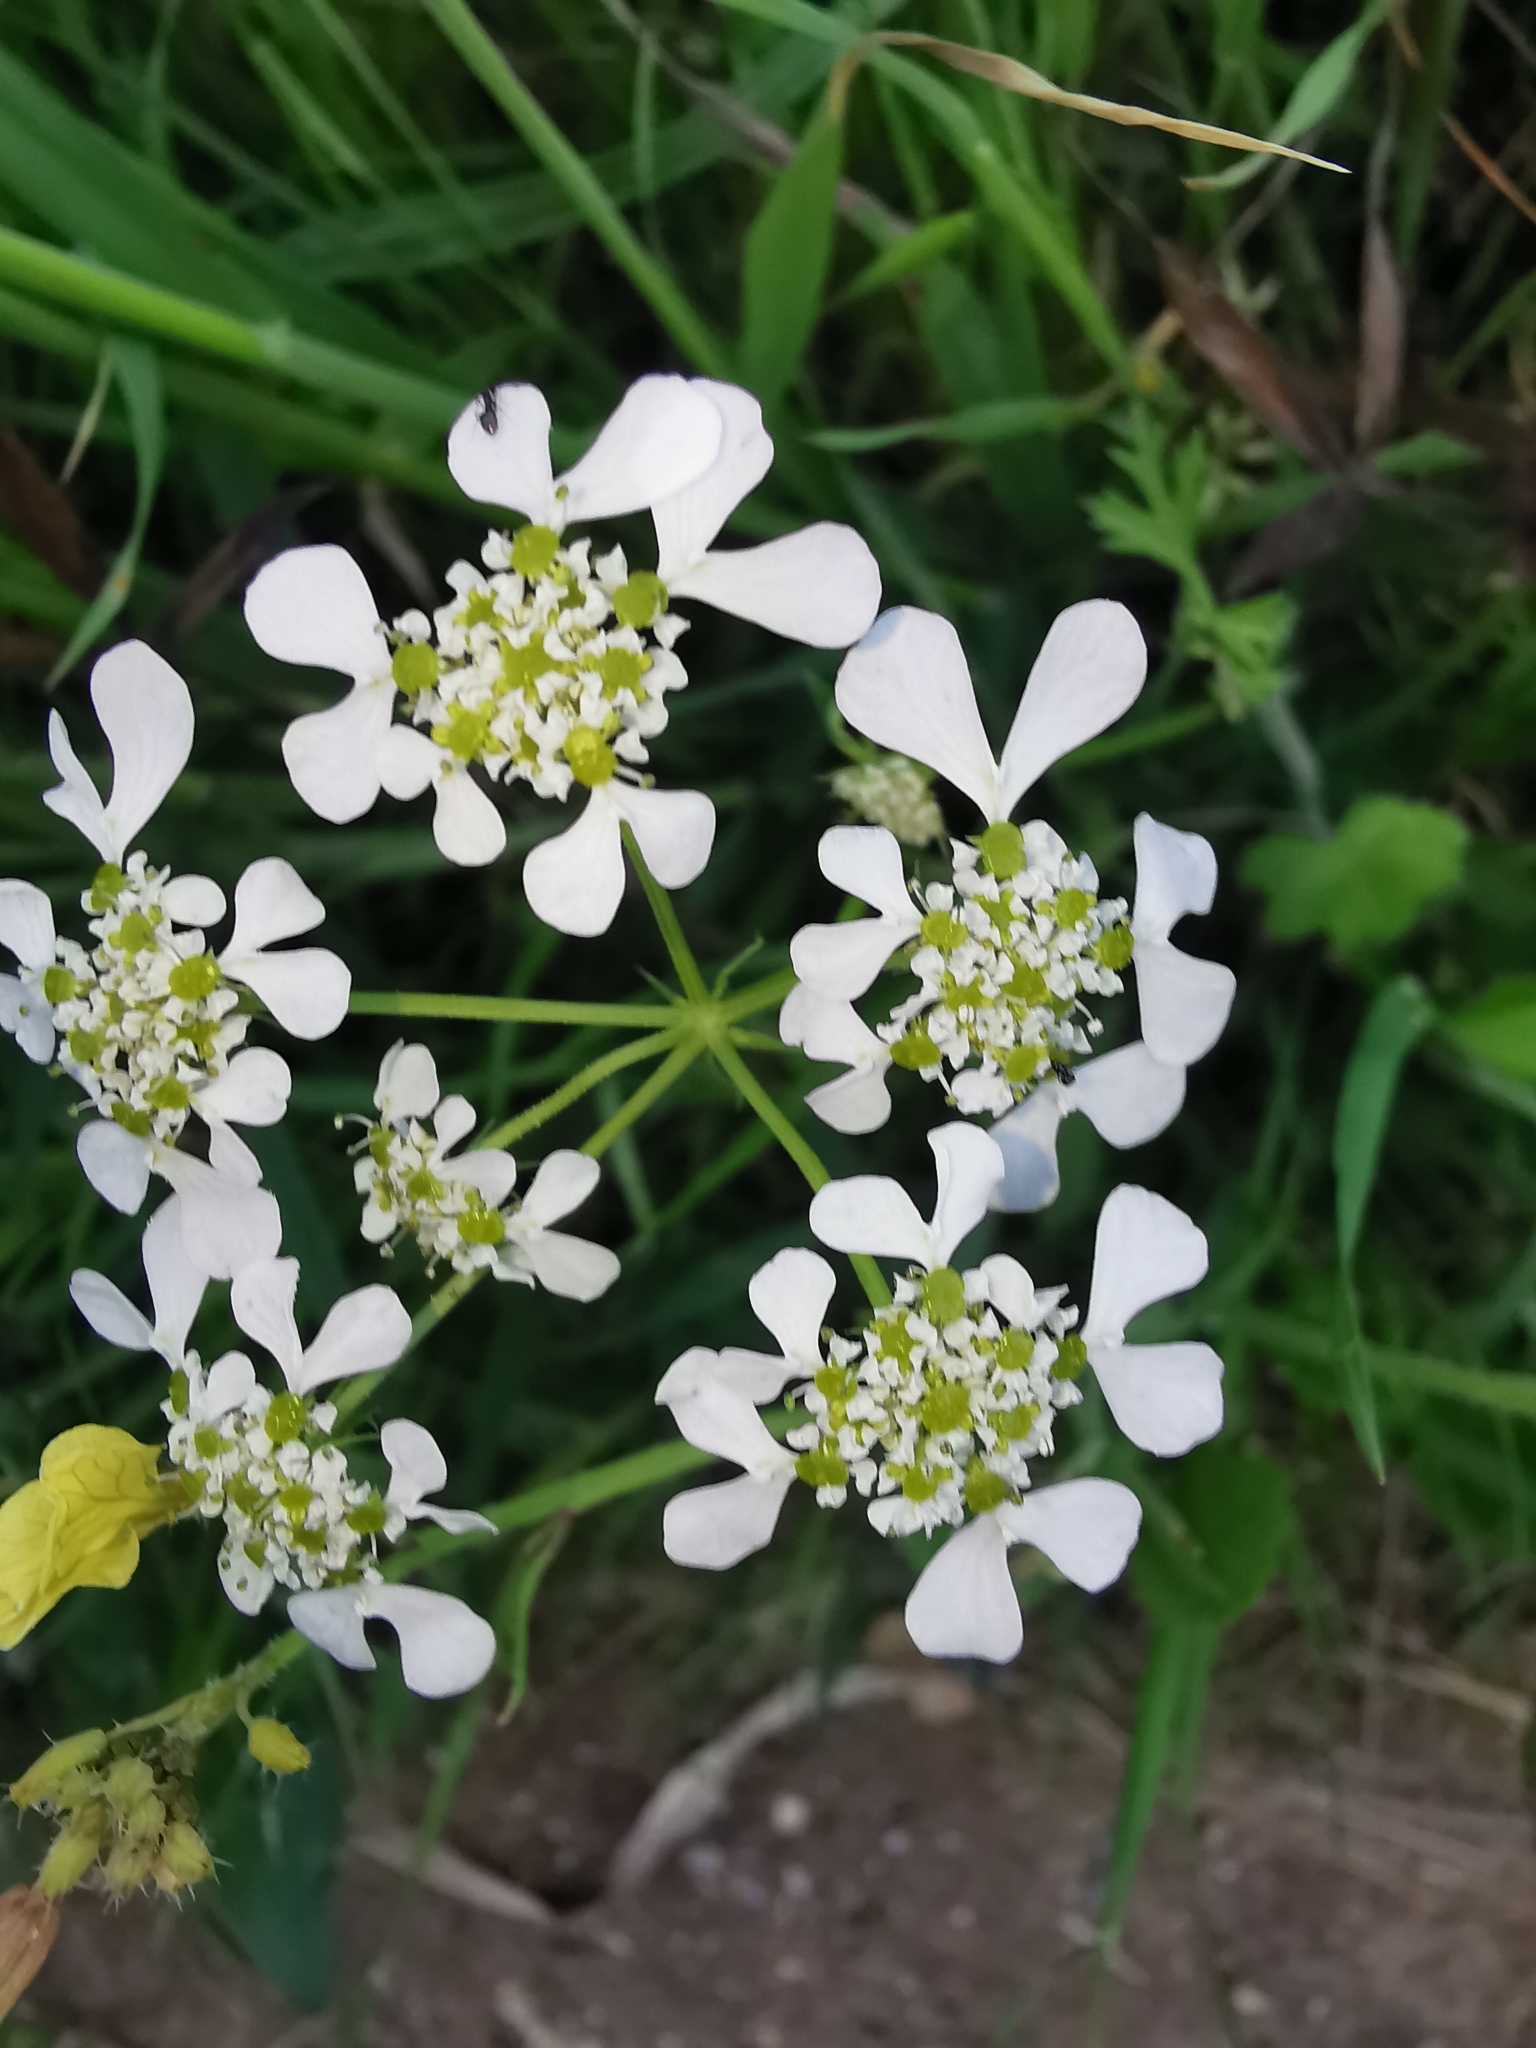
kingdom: Plantae
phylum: Tracheophyta
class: Magnoliopsida
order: Apiales
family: Apiaceae
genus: Tordylium
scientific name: Tordylium apulum
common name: Mediterranean hartwort
